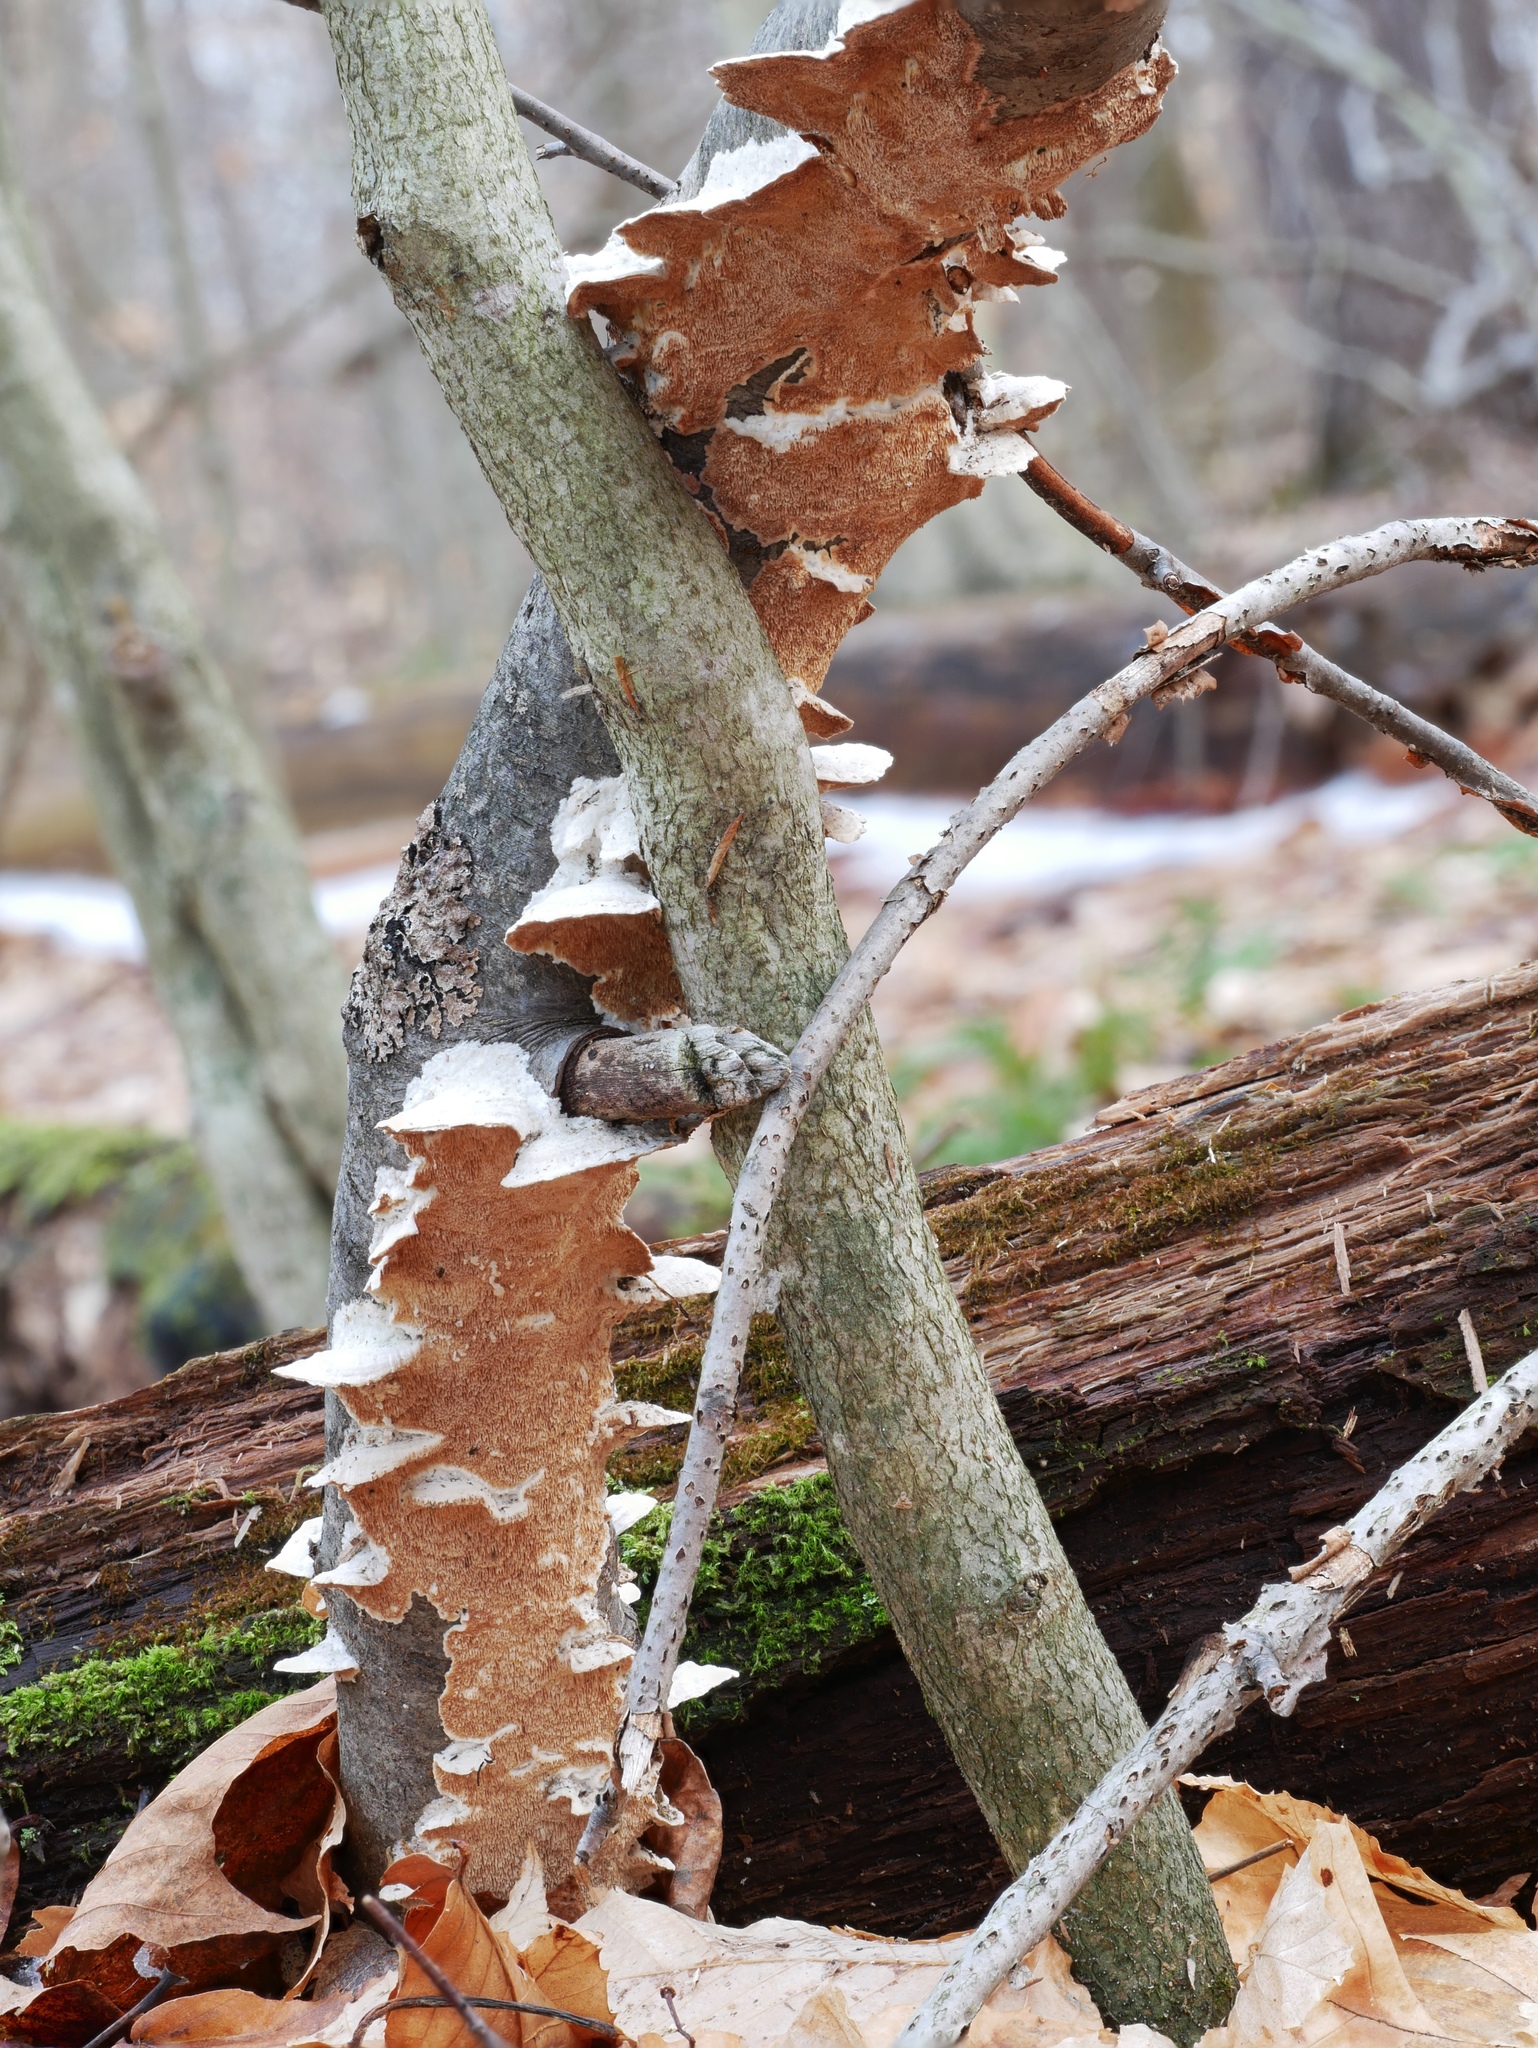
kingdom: Fungi
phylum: Basidiomycota
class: Agaricomycetes
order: Polyporales
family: Irpicaceae
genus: Vitreoporus
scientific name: Vitreoporus dichrous
